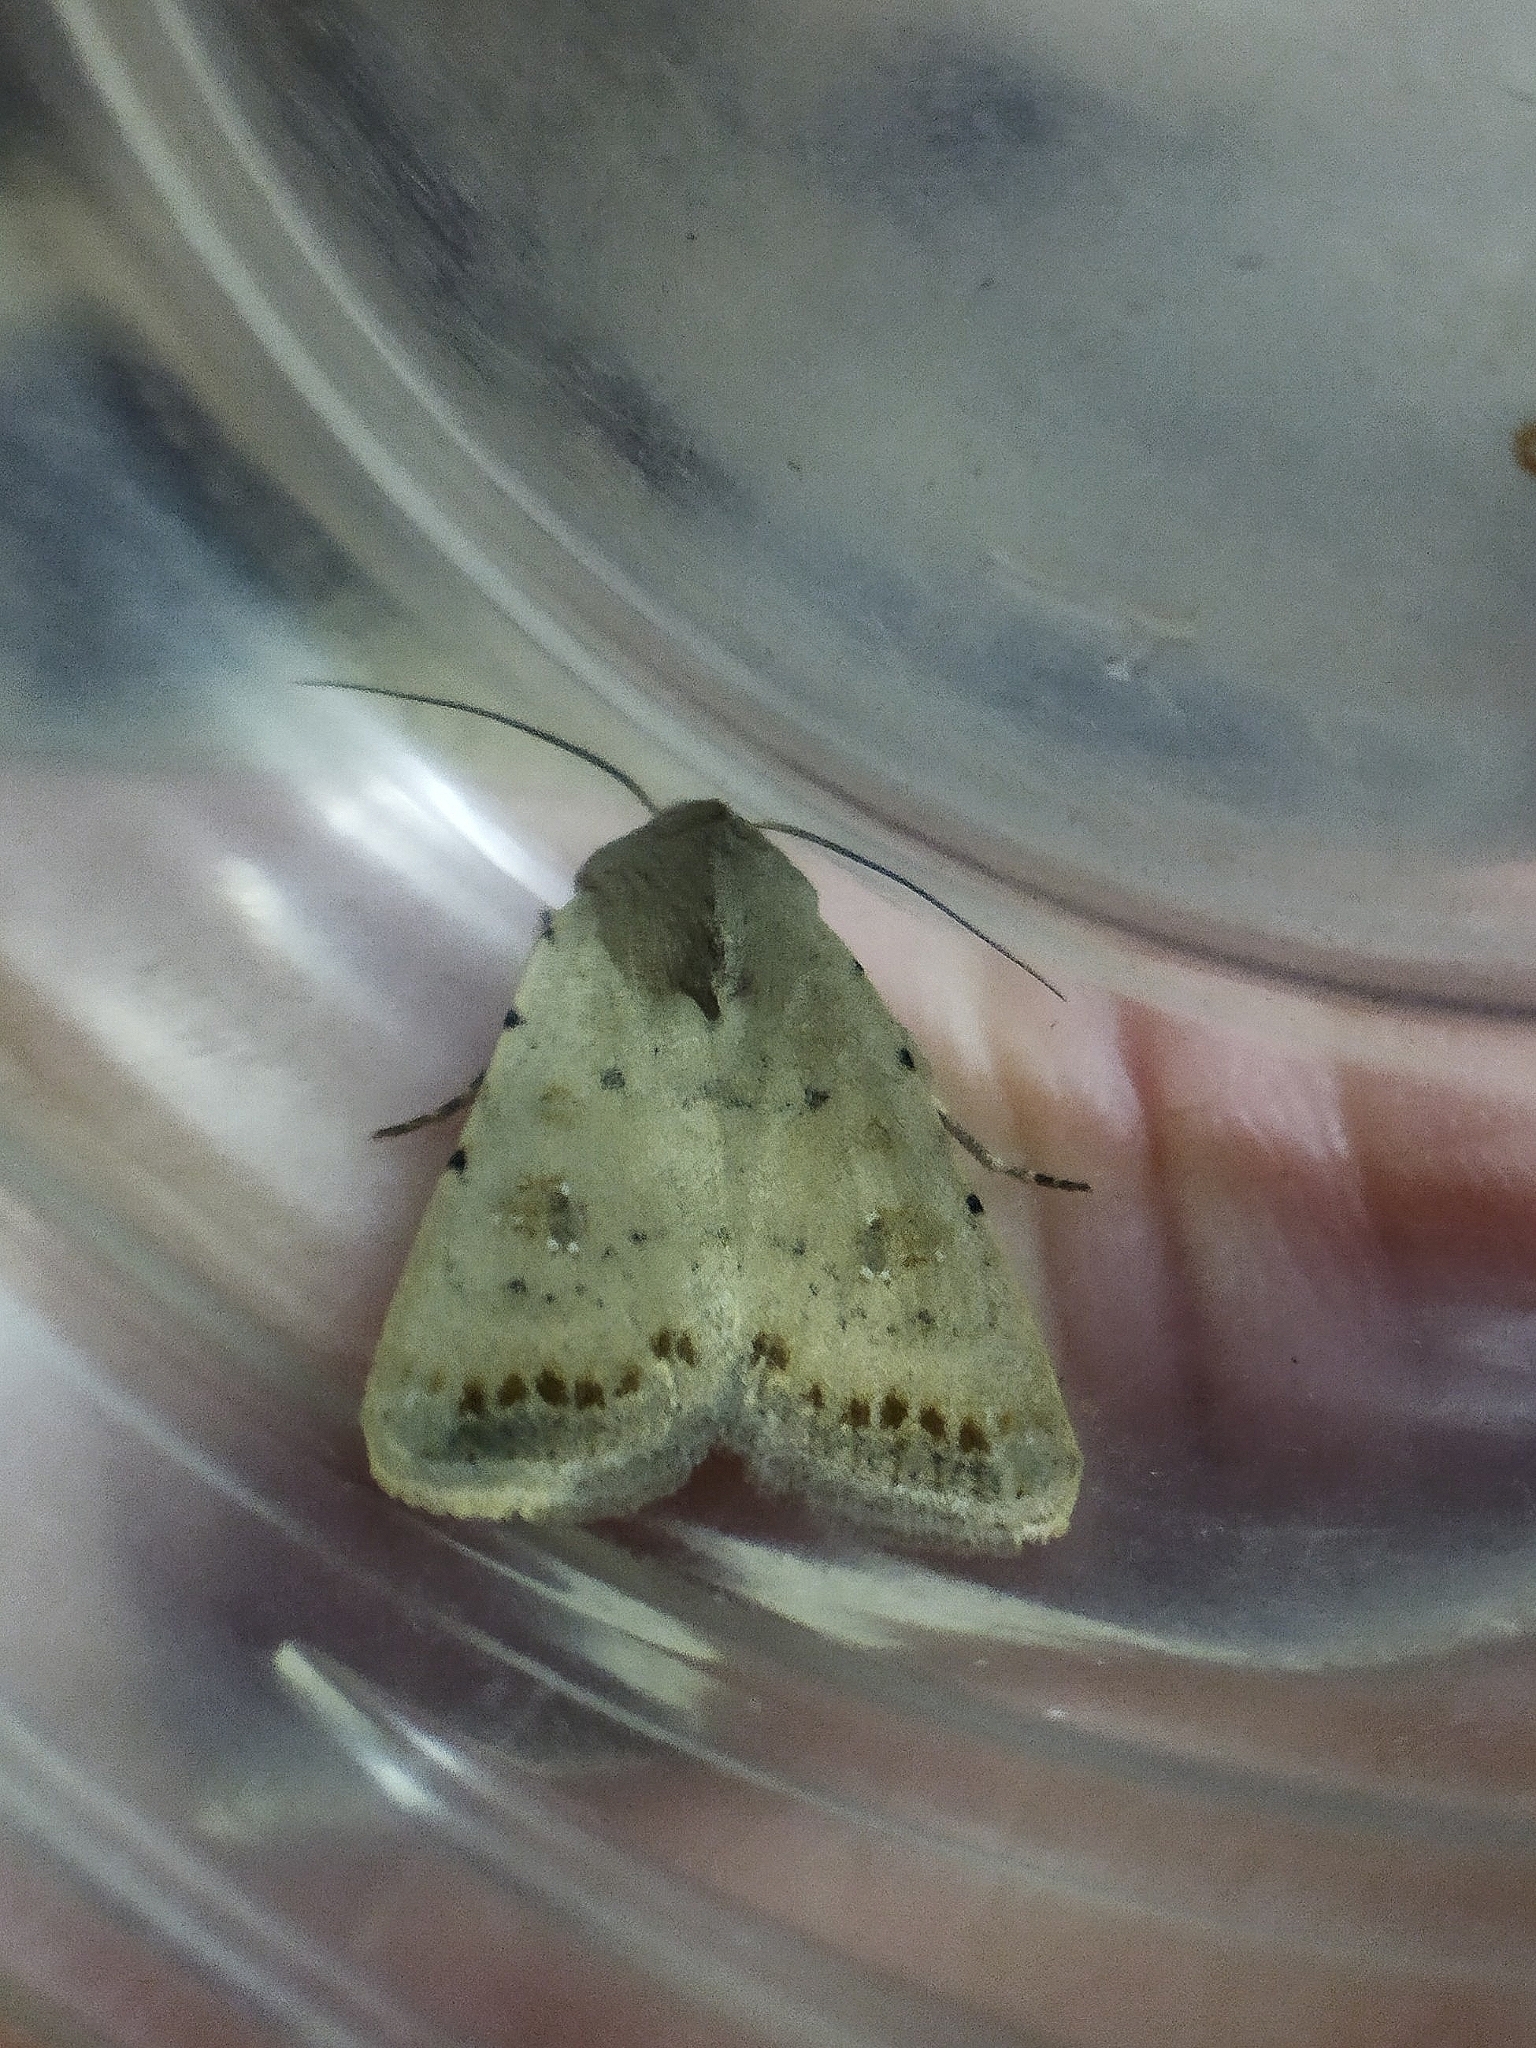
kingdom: Animalia
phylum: Arthropoda
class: Insecta
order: Lepidoptera
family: Noctuidae
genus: Caradrina
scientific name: Caradrina albina
